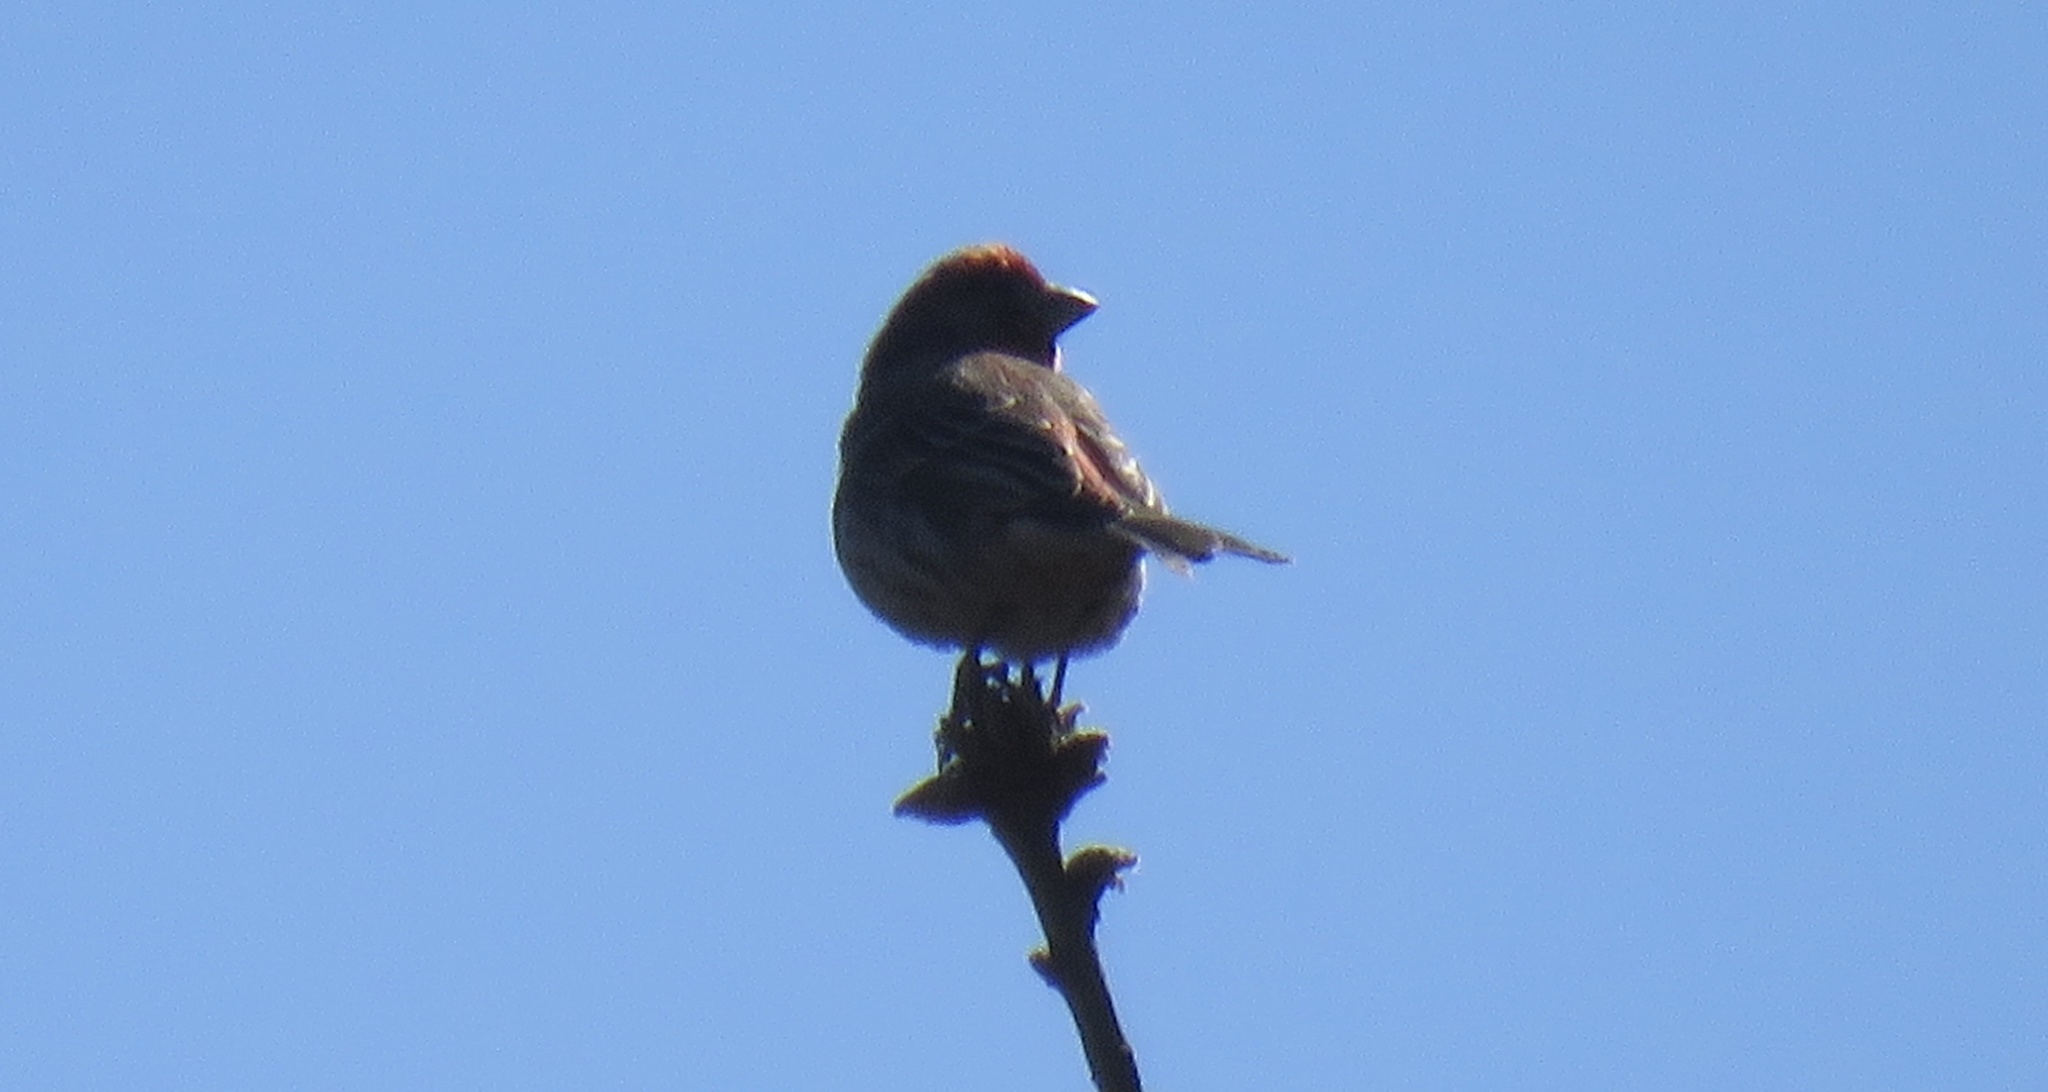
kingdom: Animalia
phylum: Chordata
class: Aves
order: Passeriformes
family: Fringillidae
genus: Haemorhous
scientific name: Haemorhous mexicanus
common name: House finch
